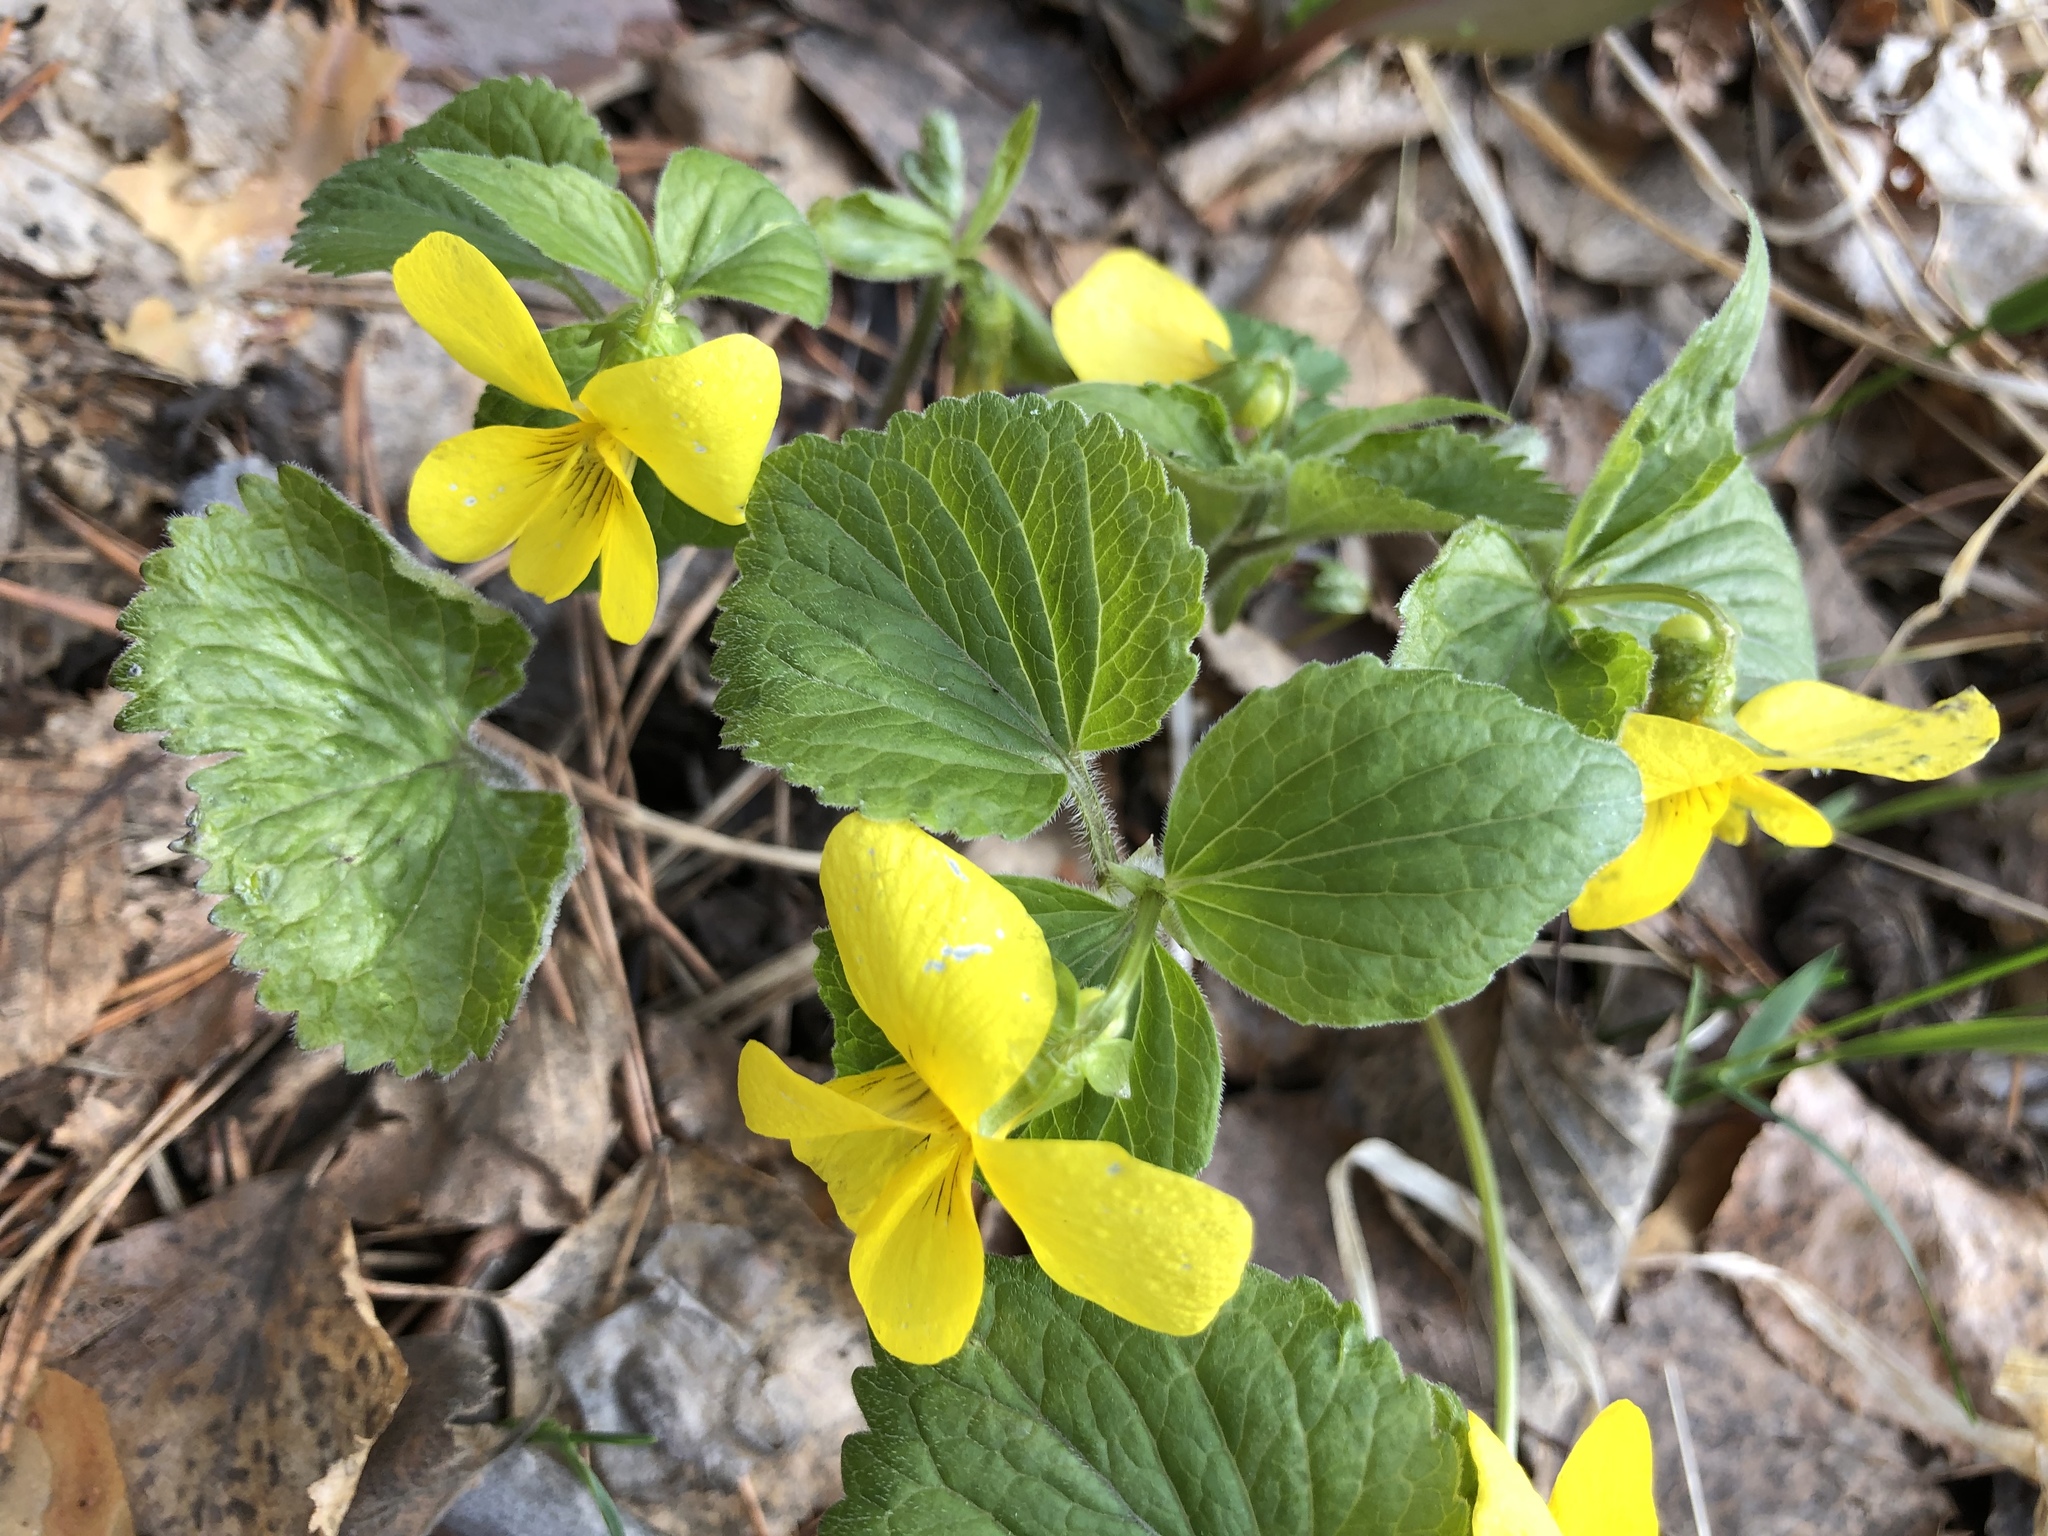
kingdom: Plantae
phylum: Tracheophyta
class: Magnoliopsida
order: Malpighiales
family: Violaceae
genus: Viola
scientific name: Viola uniflora
